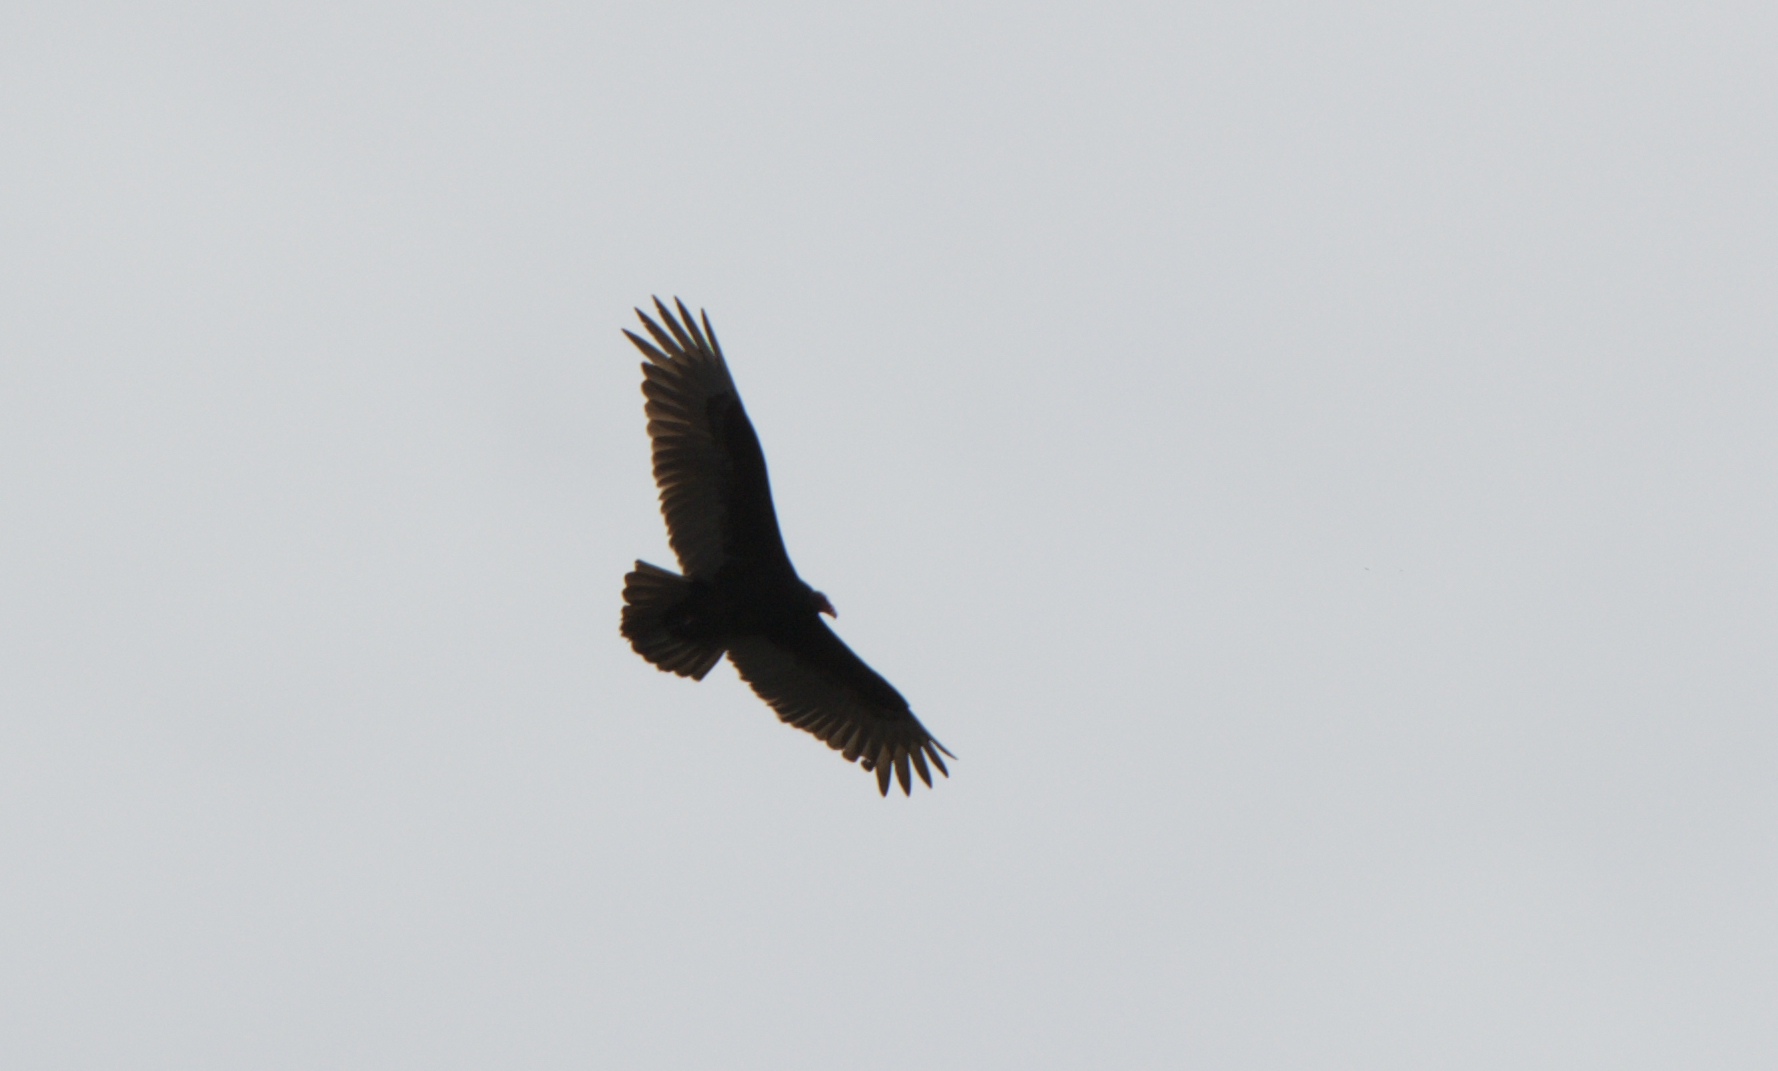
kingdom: Animalia
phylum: Chordata
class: Aves
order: Accipitriformes
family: Cathartidae
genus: Cathartes
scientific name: Cathartes aura
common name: Turkey vulture
